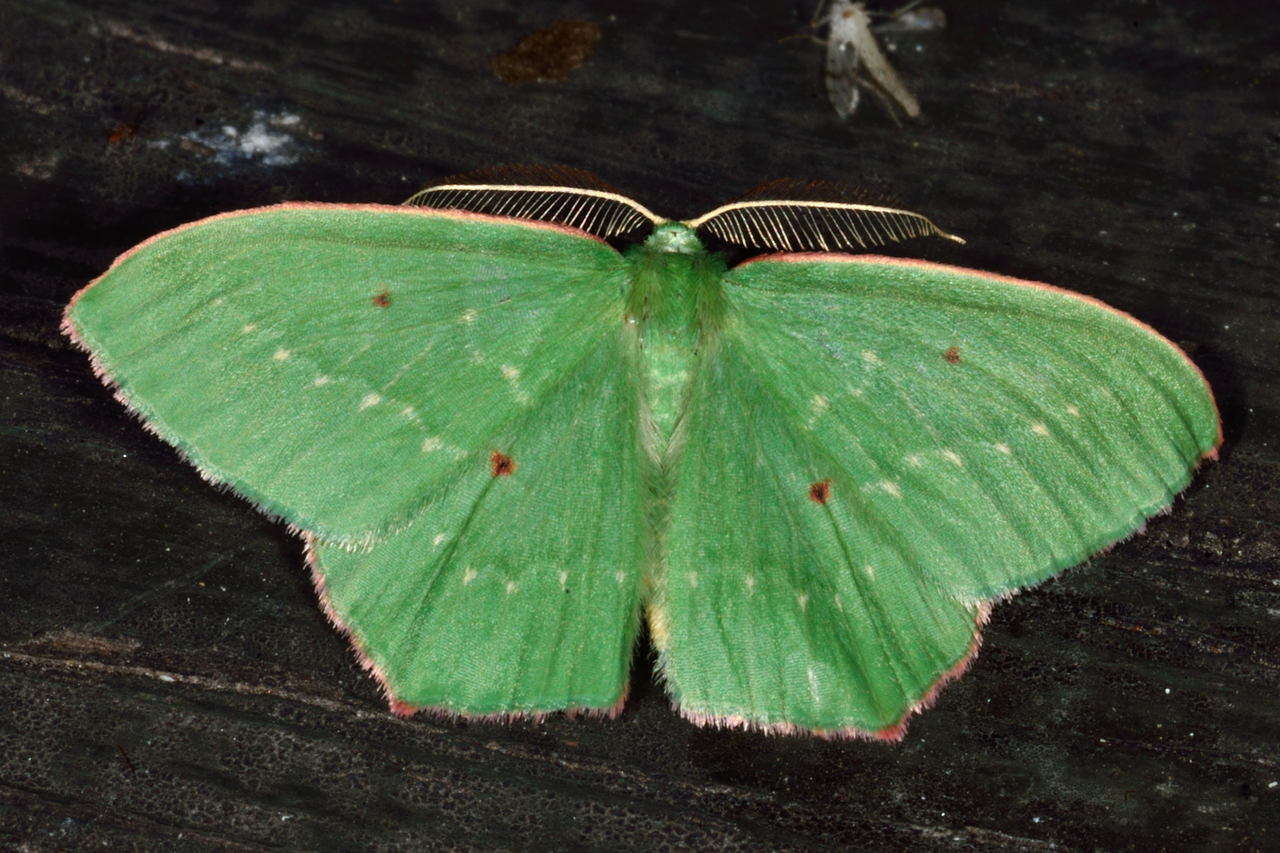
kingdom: Animalia
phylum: Arthropoda
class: Insecta
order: Lepidoptera
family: Geometridae
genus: Chlorocoma
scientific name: Chlorocoma tetraspila
